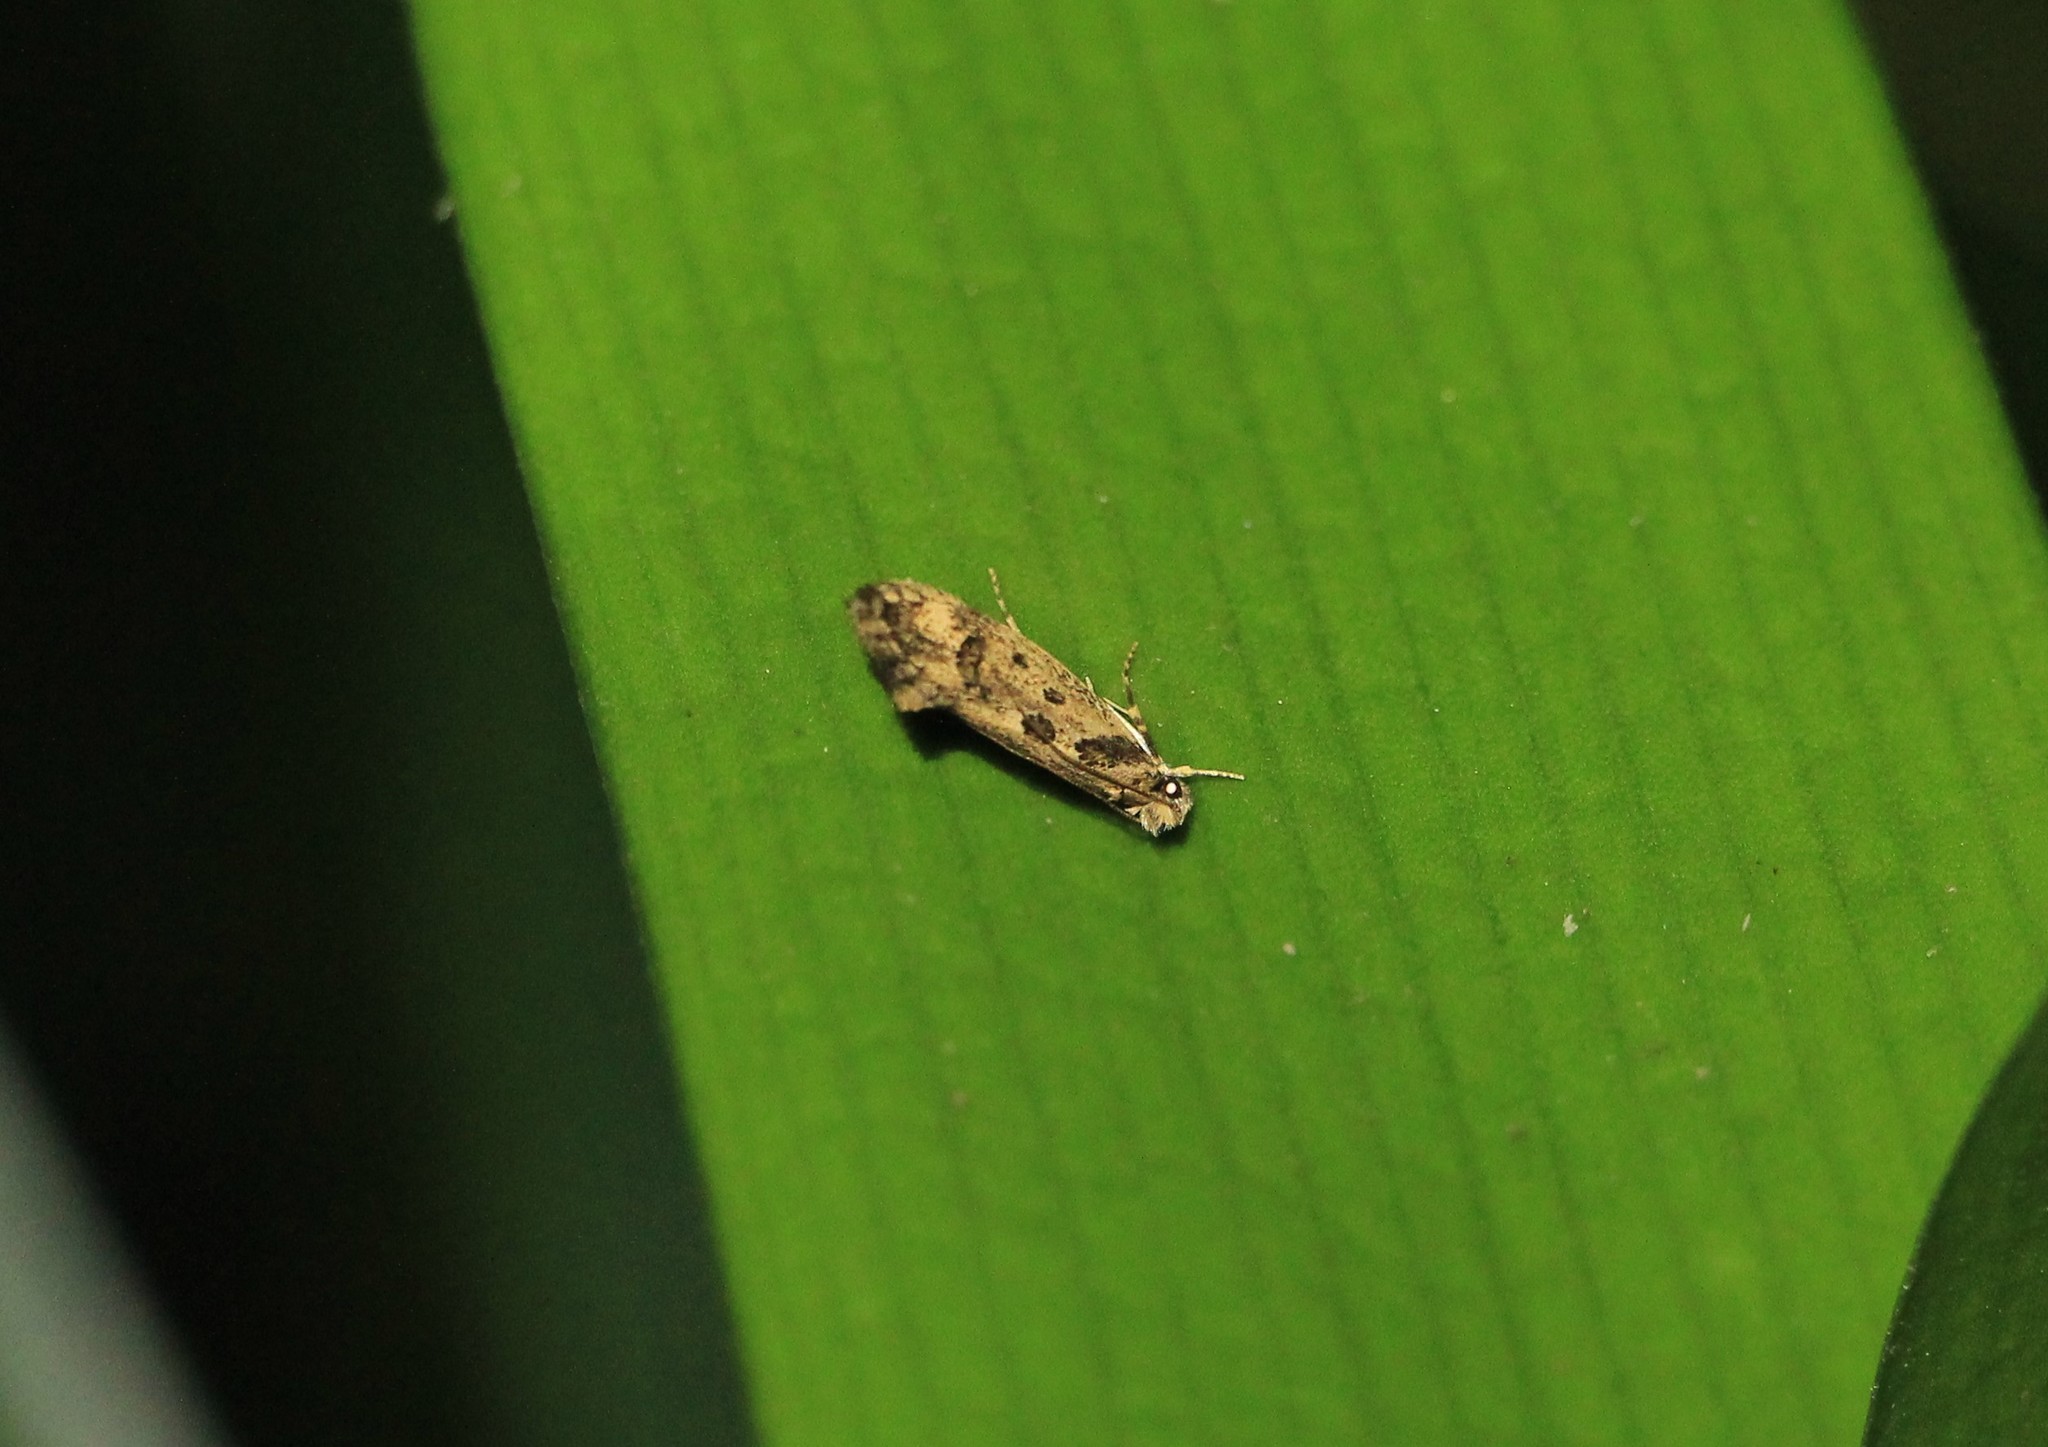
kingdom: Animalia
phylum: Arthropoda
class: Insecta
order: Lepidoptera
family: Tineidae
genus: Erechthias
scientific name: Erechthias capnitis
